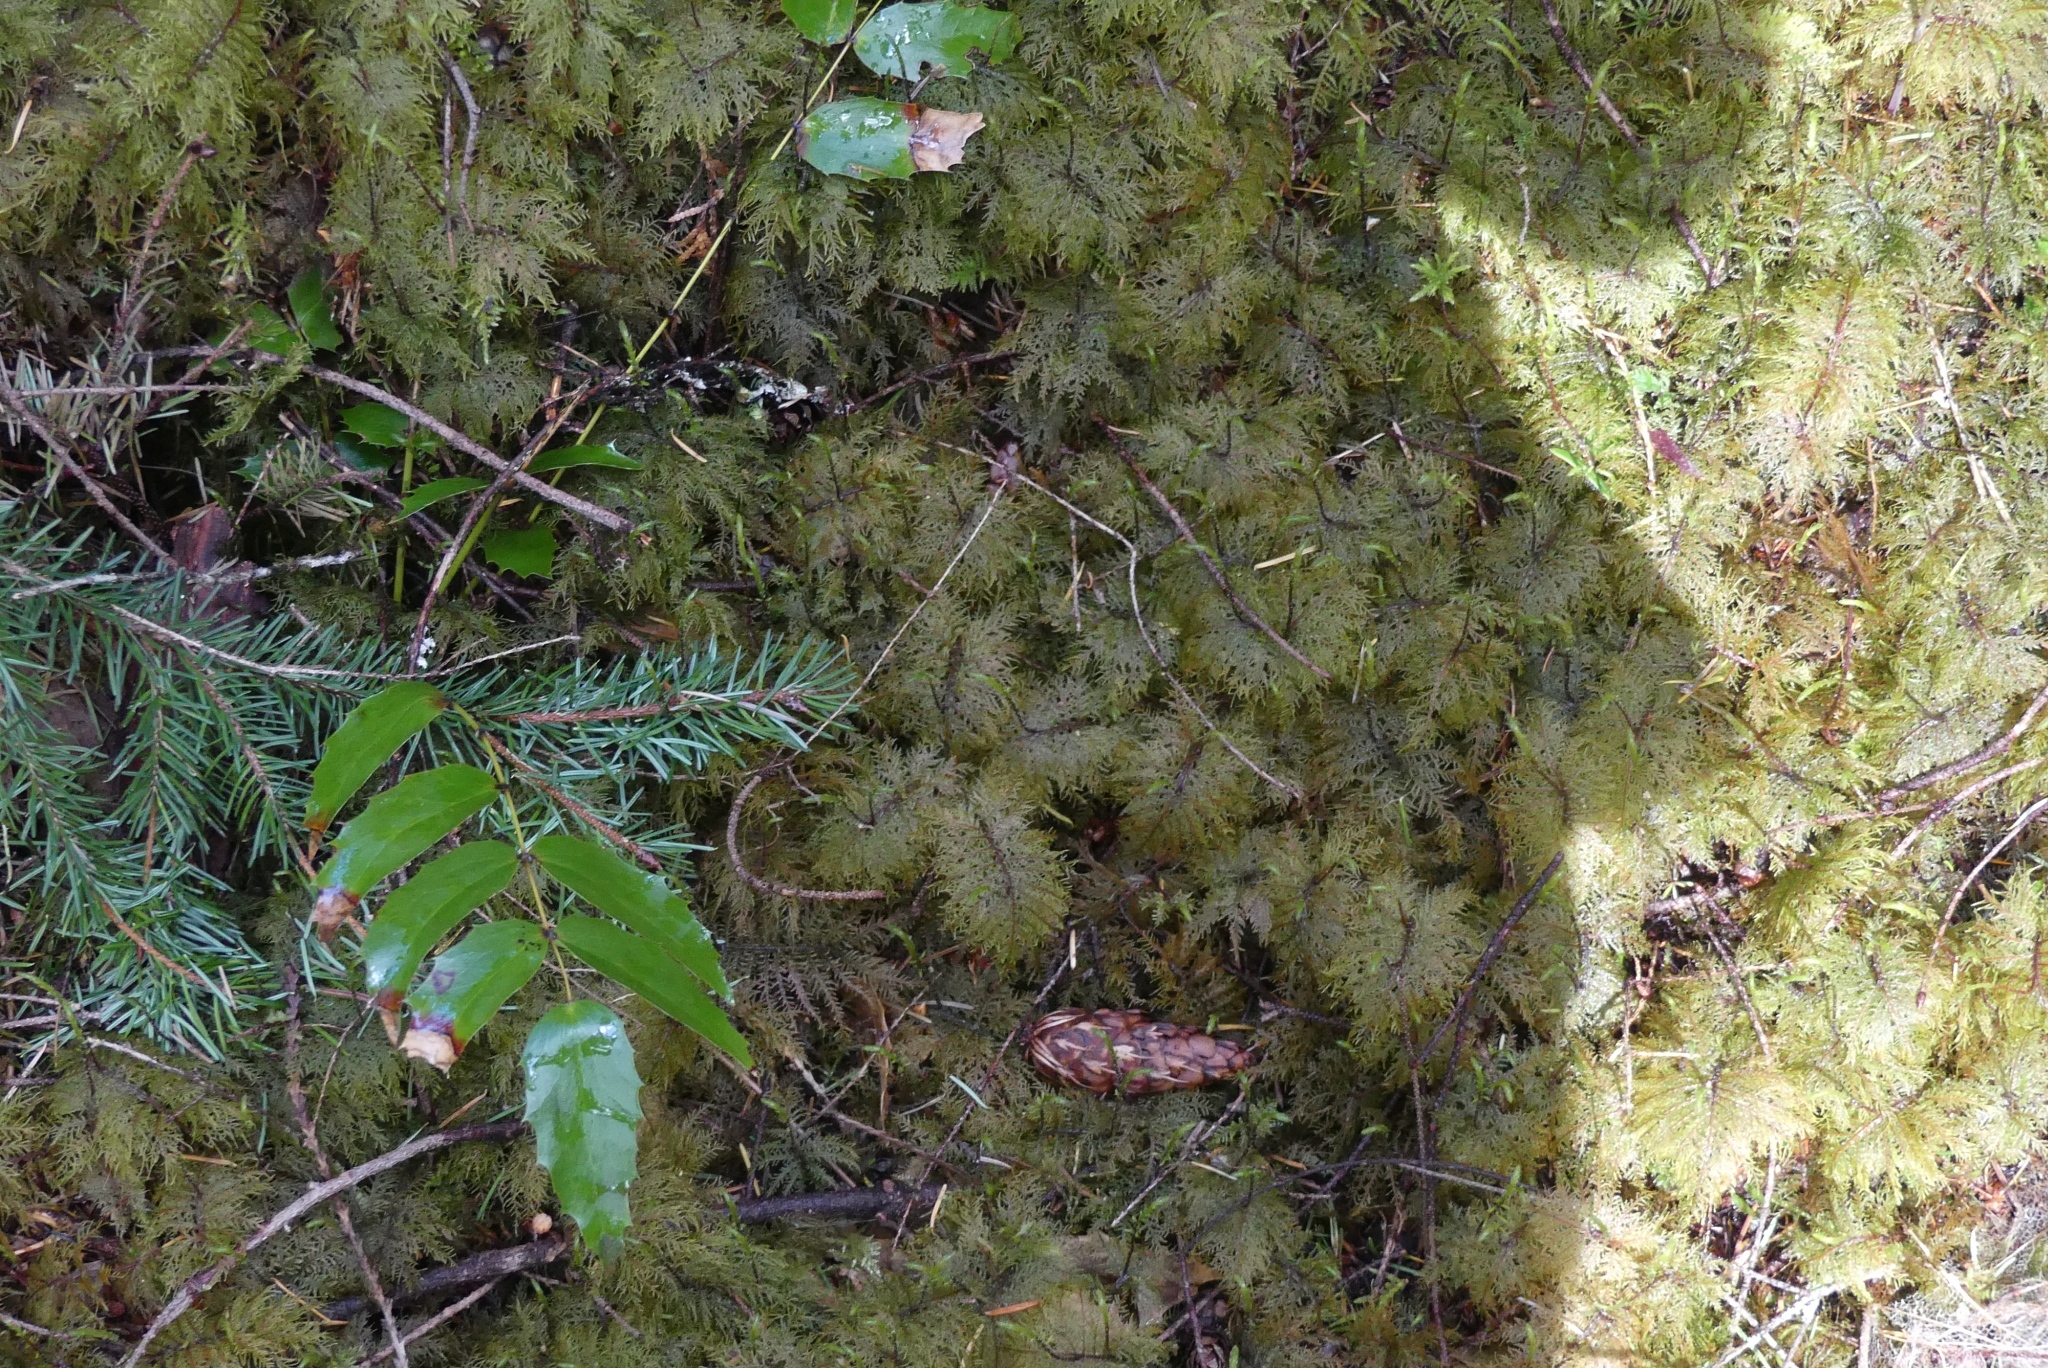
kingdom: Plantae
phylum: Bryophyta
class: Bryopsida
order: Hypnales
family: Hylocomiaceae
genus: Hylocomium
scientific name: Hylocomium splendens
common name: Stairstep moss
